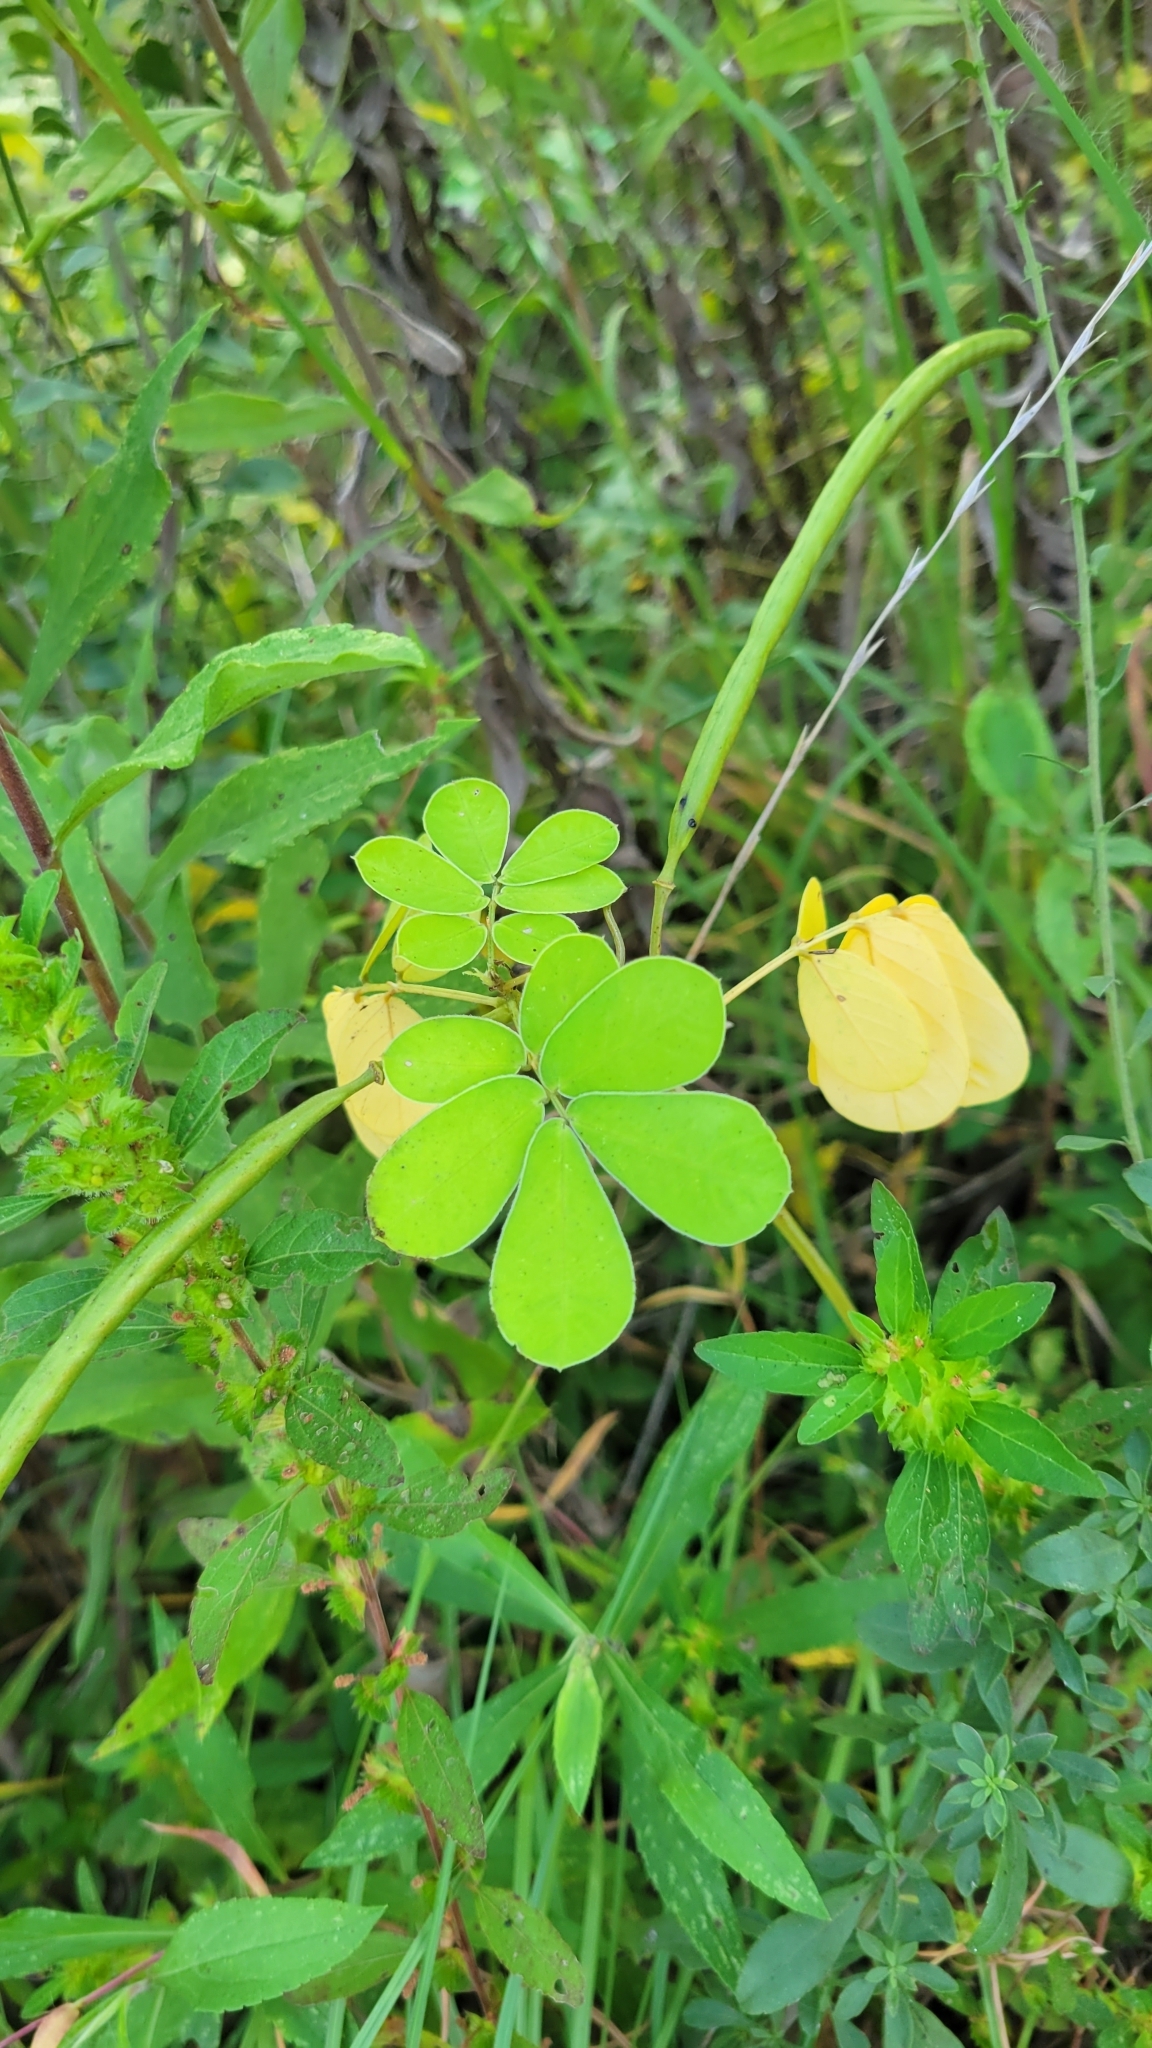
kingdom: Plantae
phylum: Tracheophyta
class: Magnoliopsida
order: Fabales
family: Fabaceae
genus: Senna
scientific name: Senna obtusifolia
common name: Java-bean
